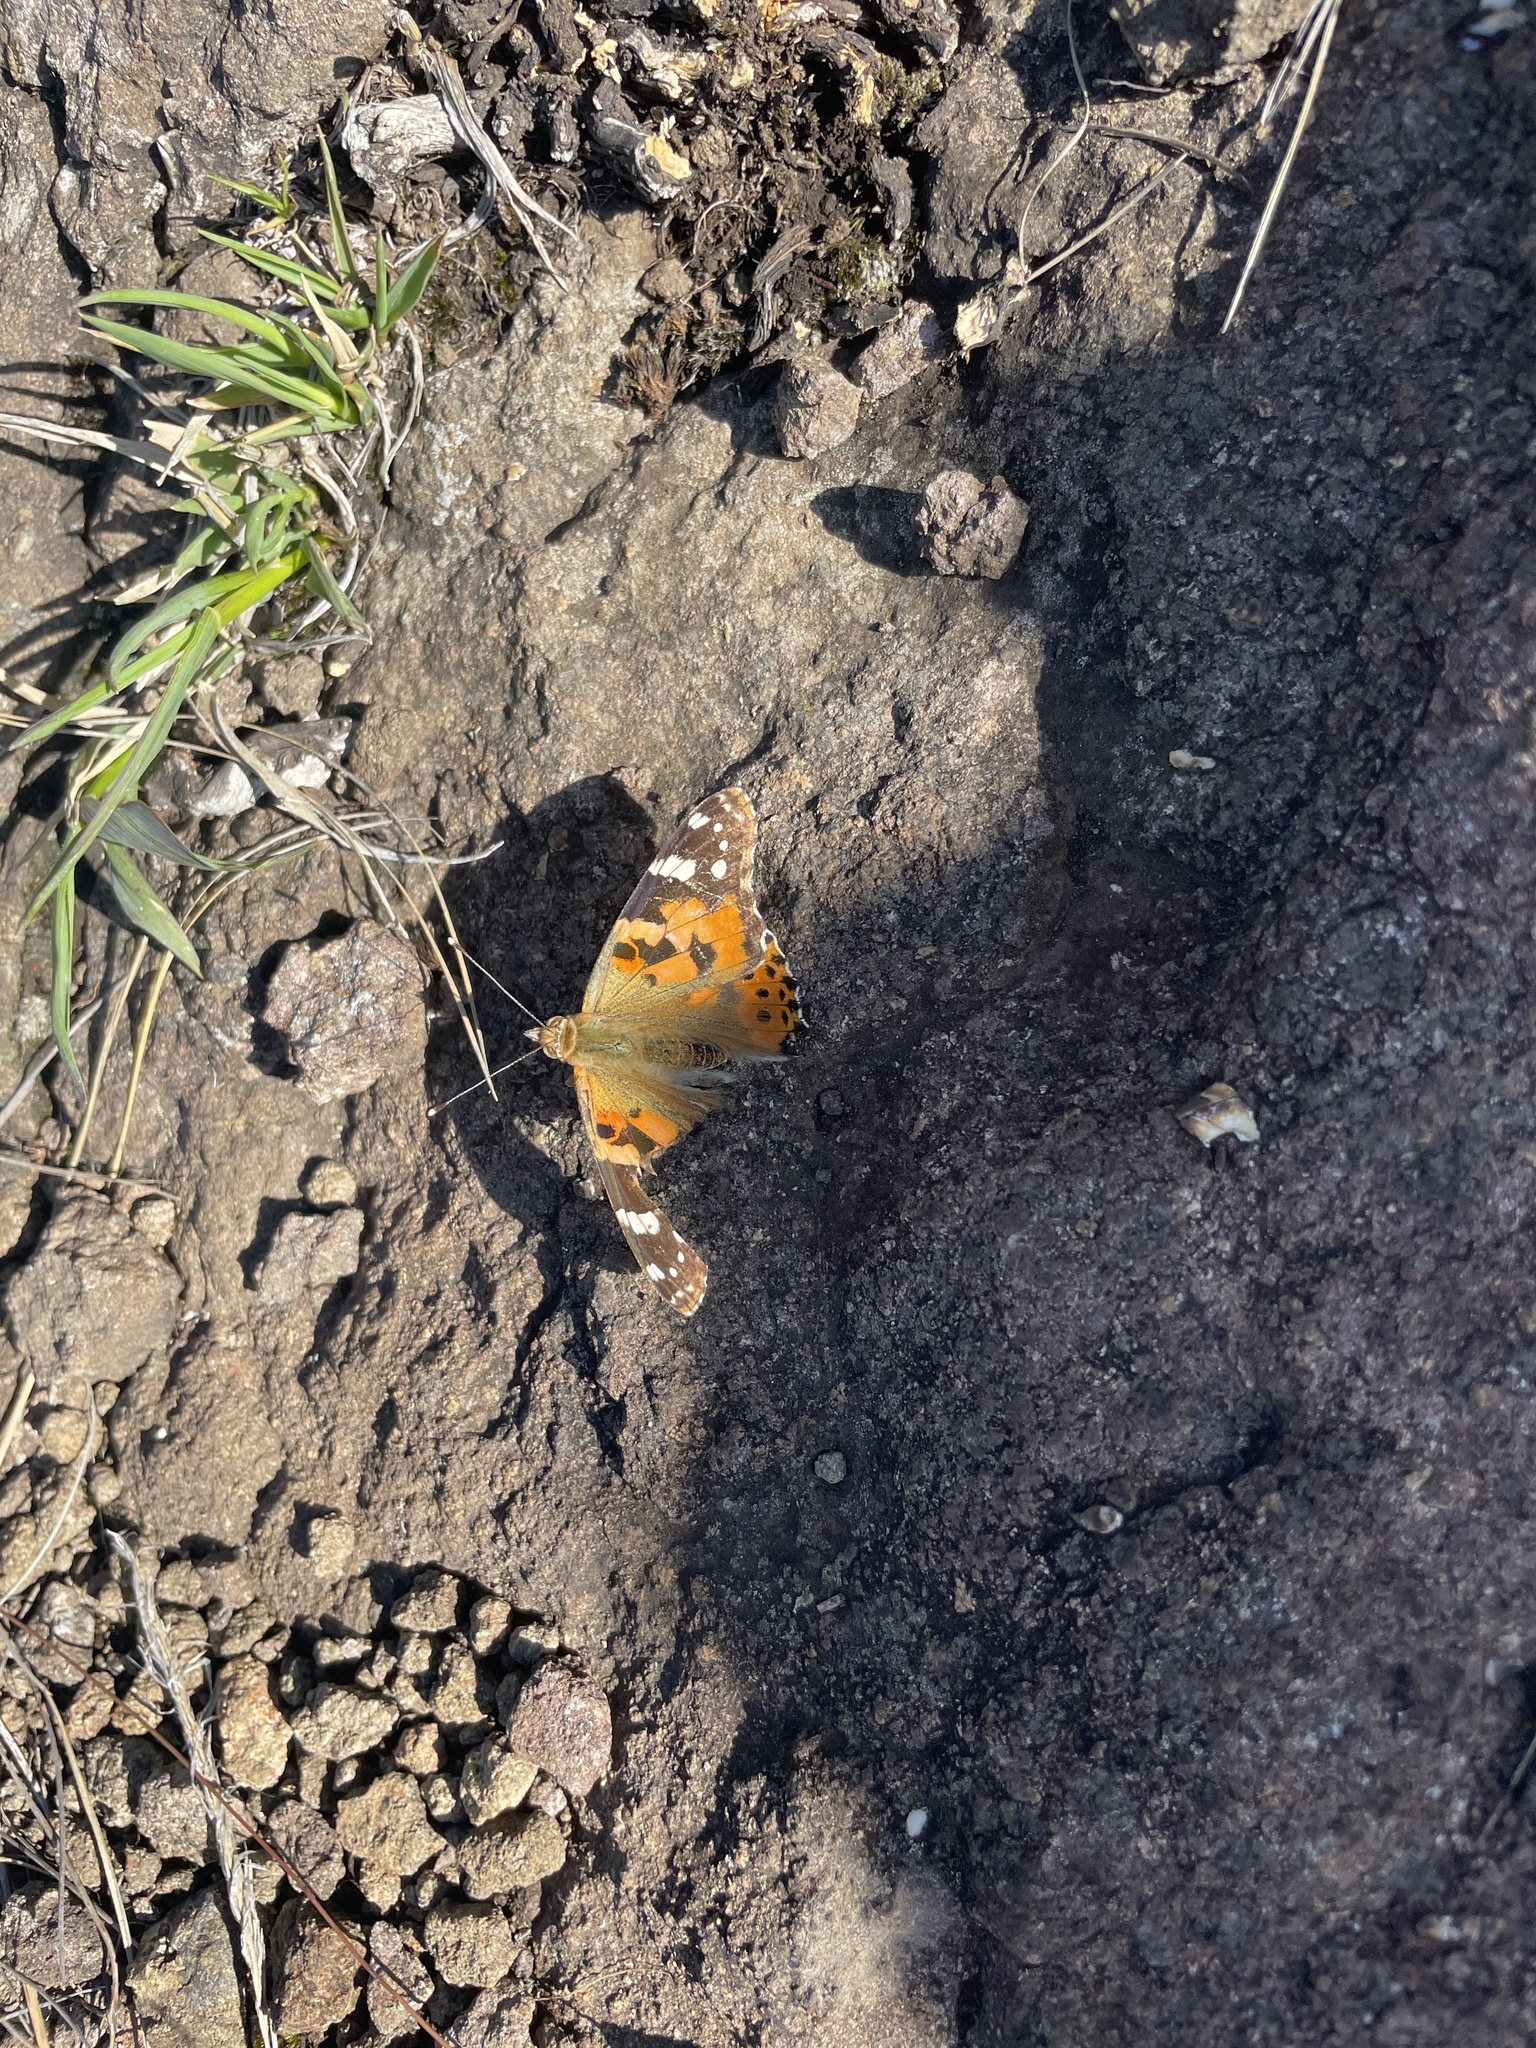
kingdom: Animalia
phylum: Arthropoda
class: Insecta
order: Lepidoptera
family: Nymphalidae
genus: Vanessa
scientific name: Vanessa cardui
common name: Painted lady
